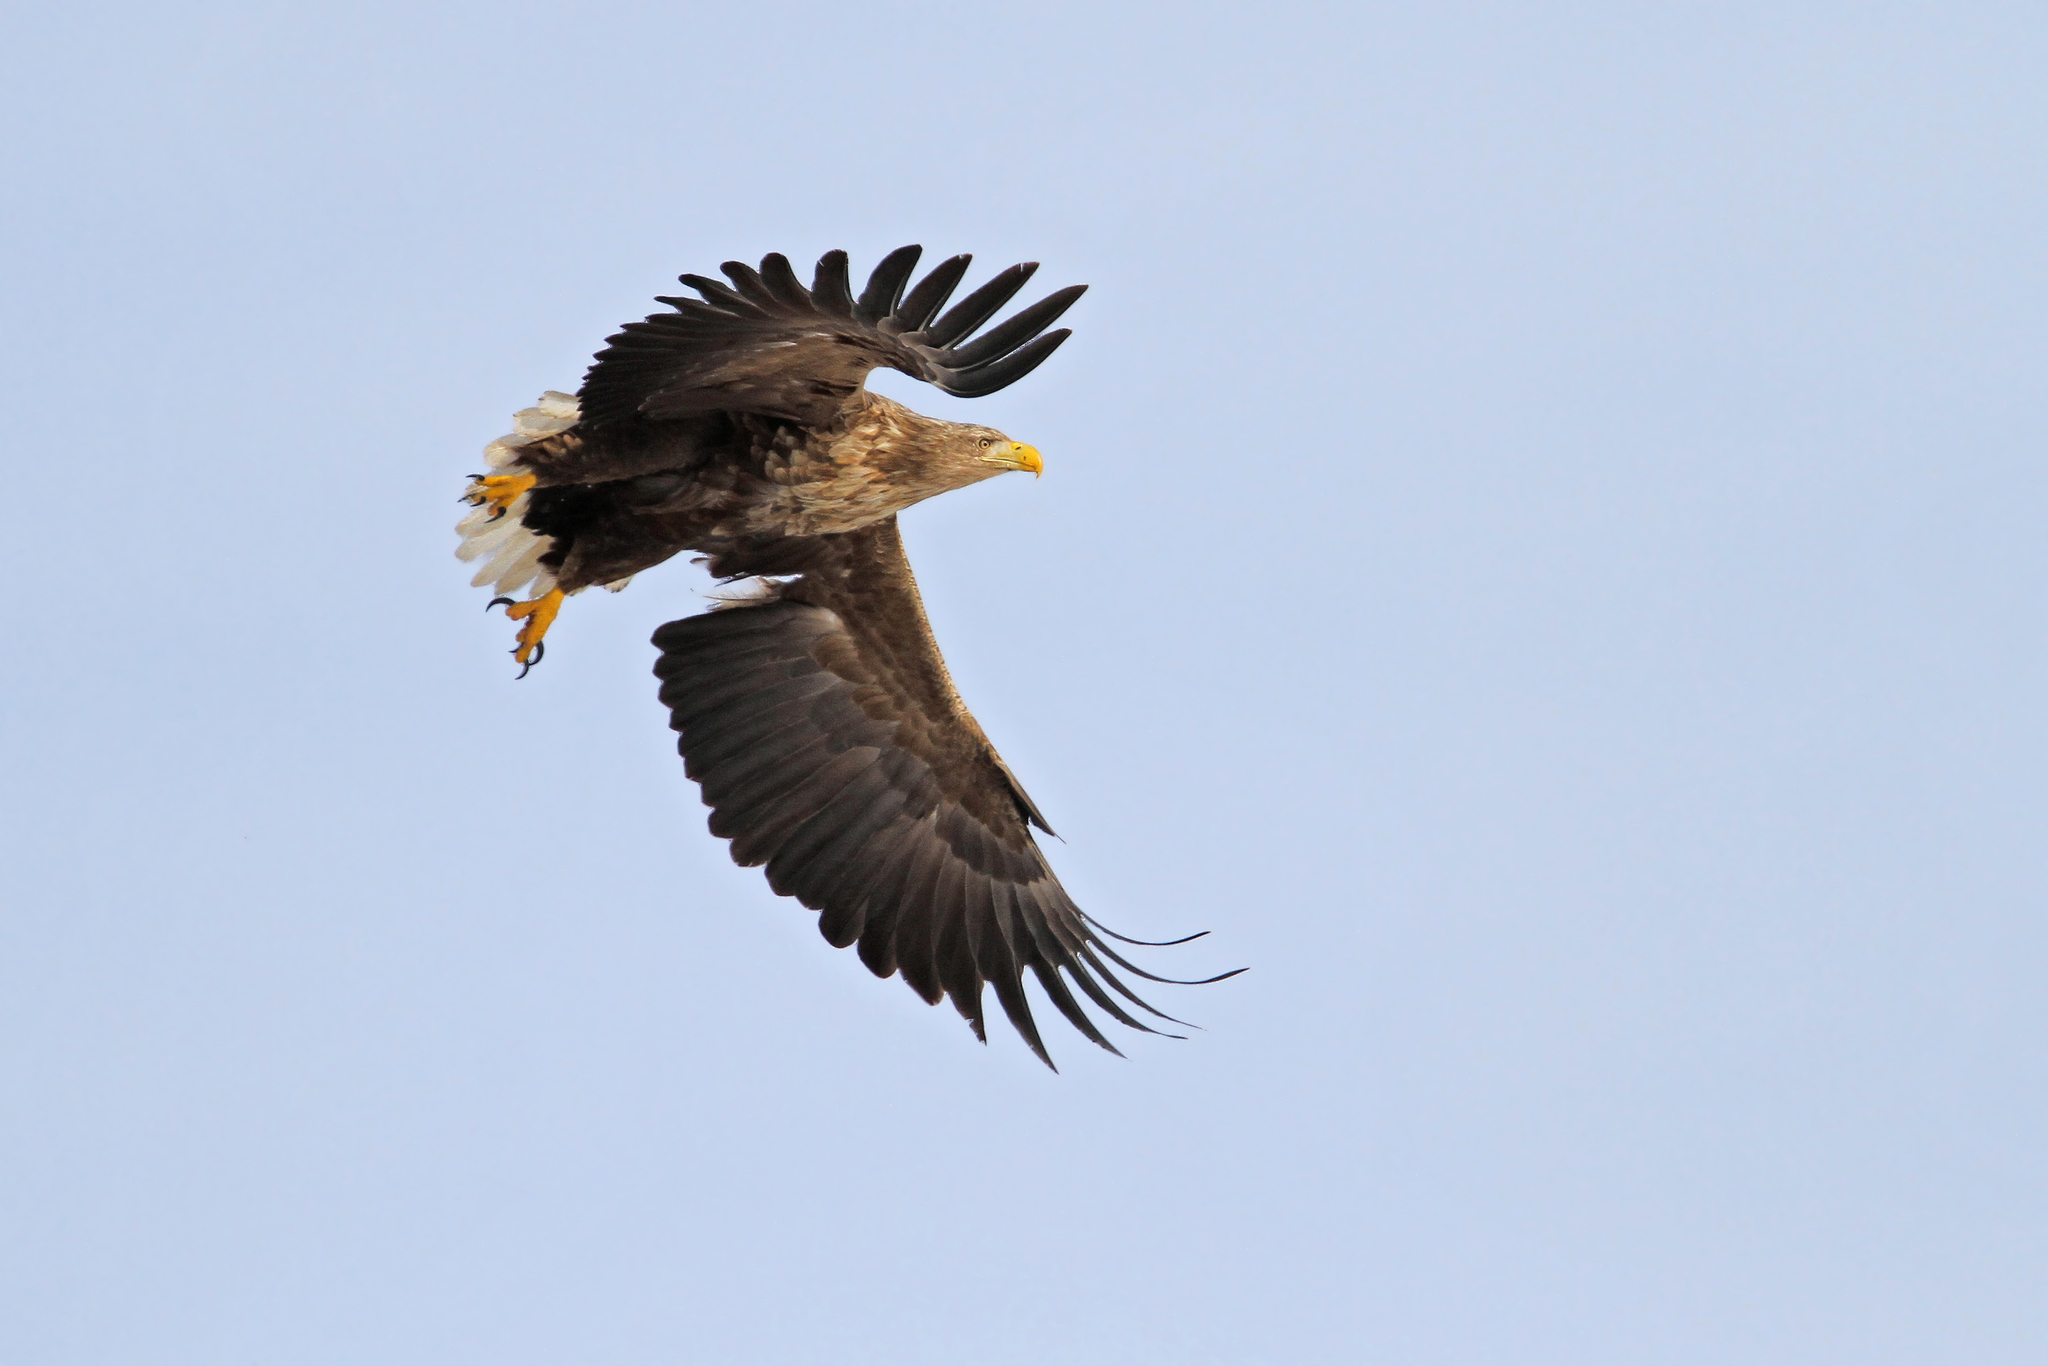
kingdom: Animalia
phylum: Chordata
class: Aves
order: Accipitriformes
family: Accipitridae
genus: Haliaeetus
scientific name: Haliaeetus albicilla
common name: White-tailed eagle
